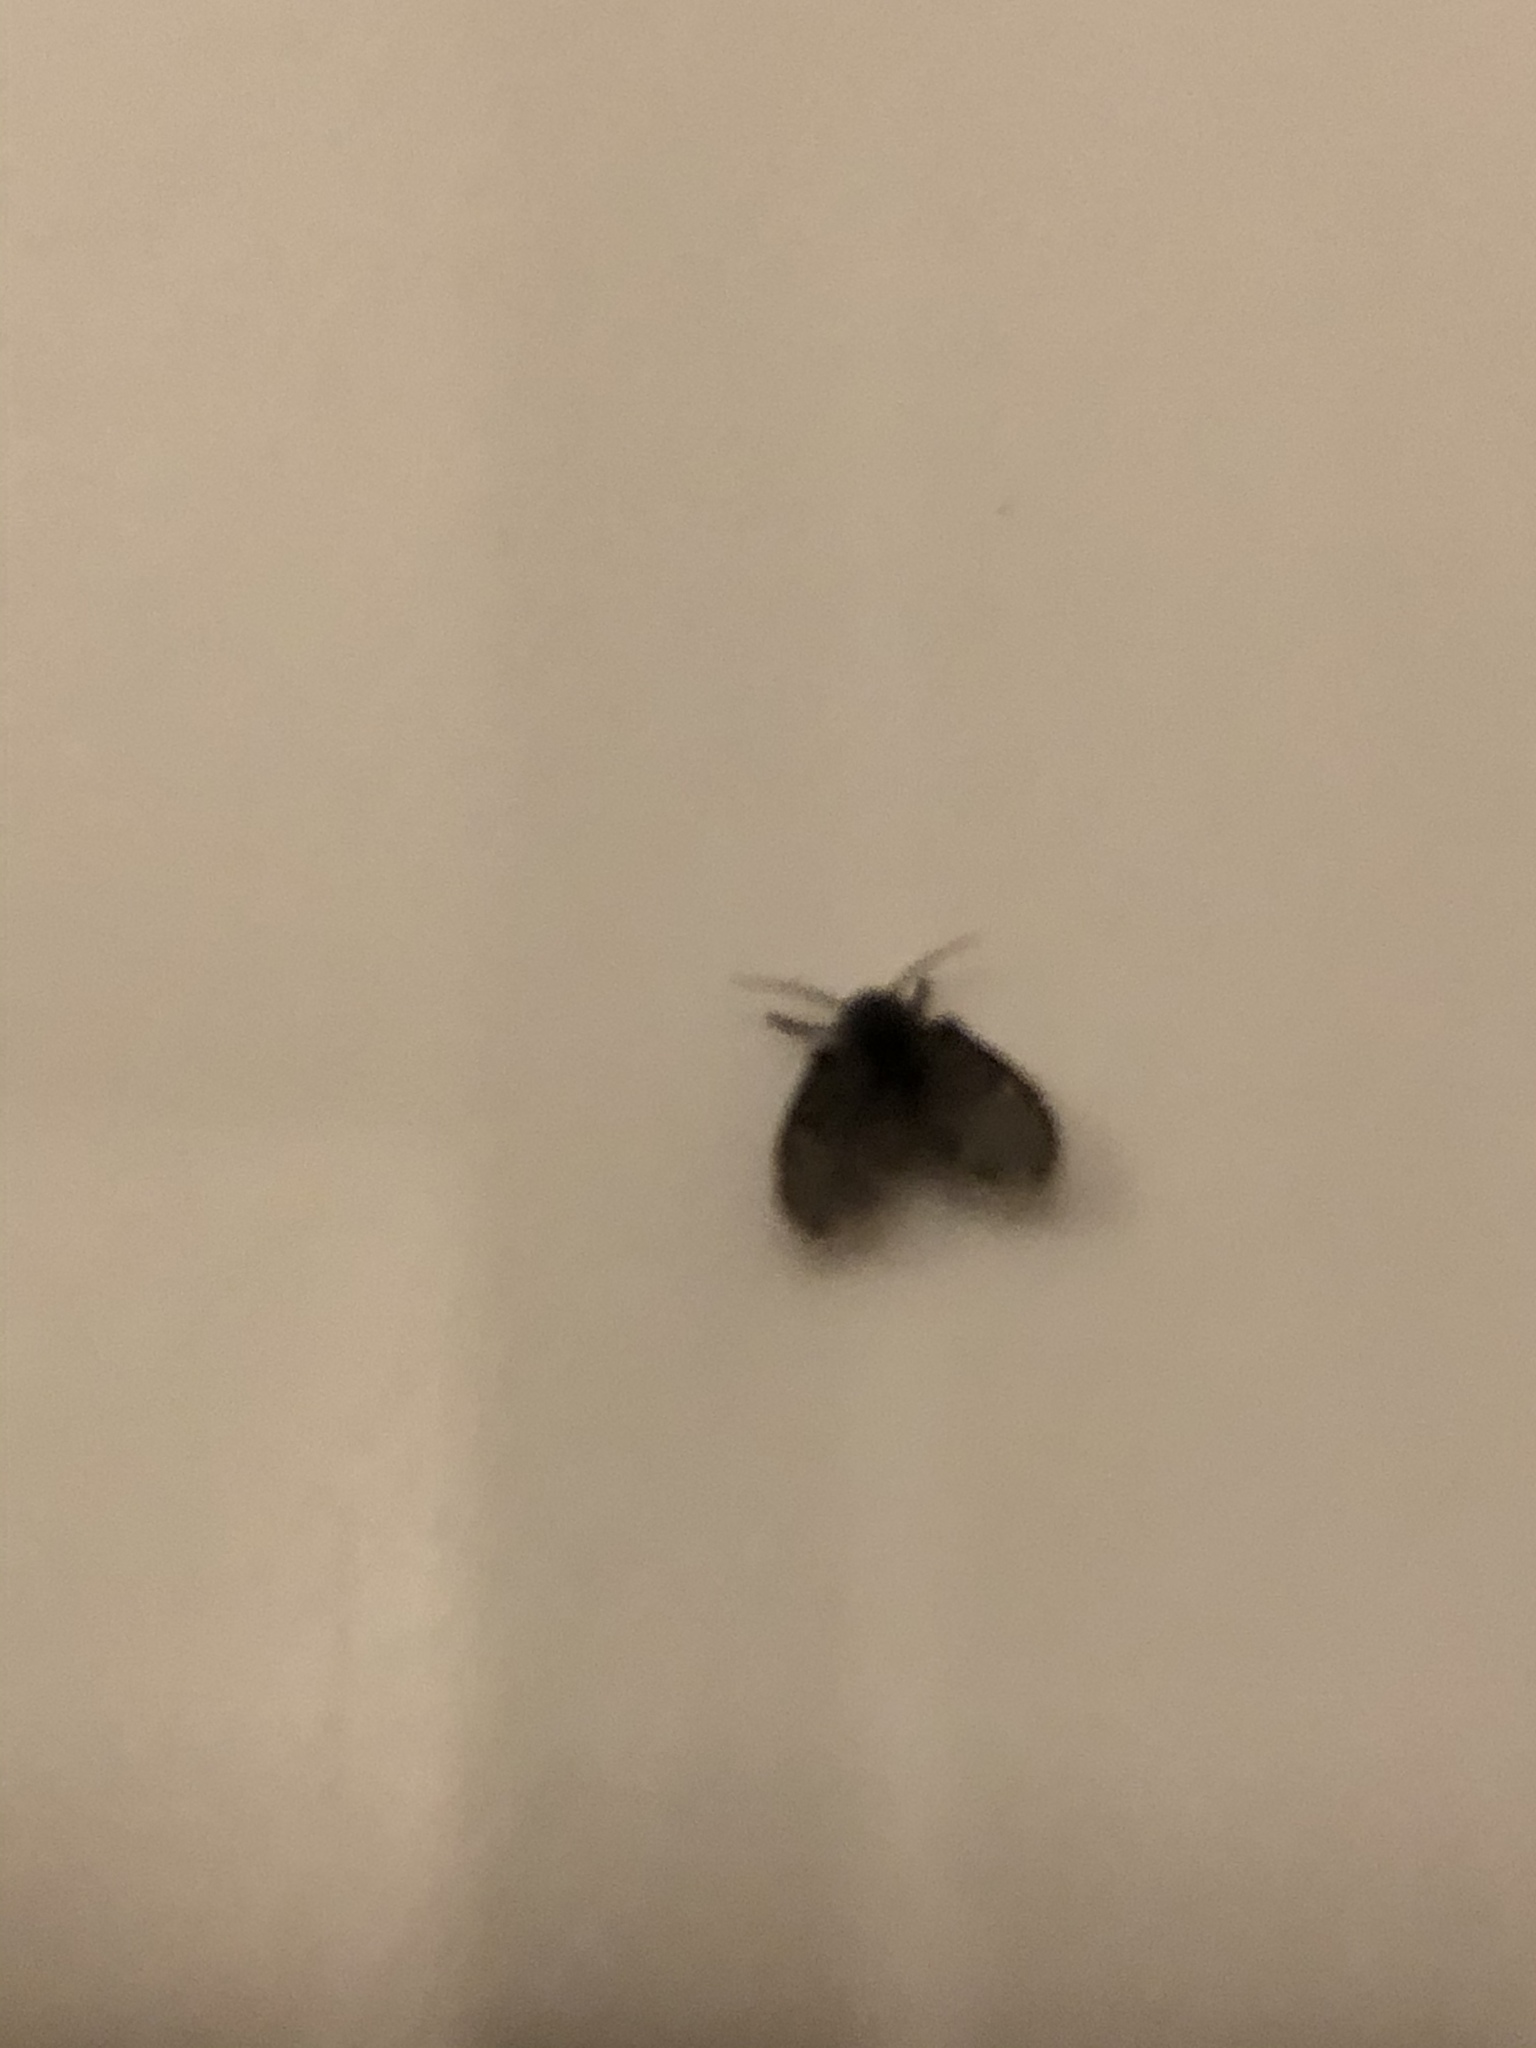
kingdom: Animalia
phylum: Arthropoda
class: Insecta
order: Diptera
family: Psychodidae
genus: Clogmia
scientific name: Clogmia albipunctatus
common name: White-spotted moth fly
